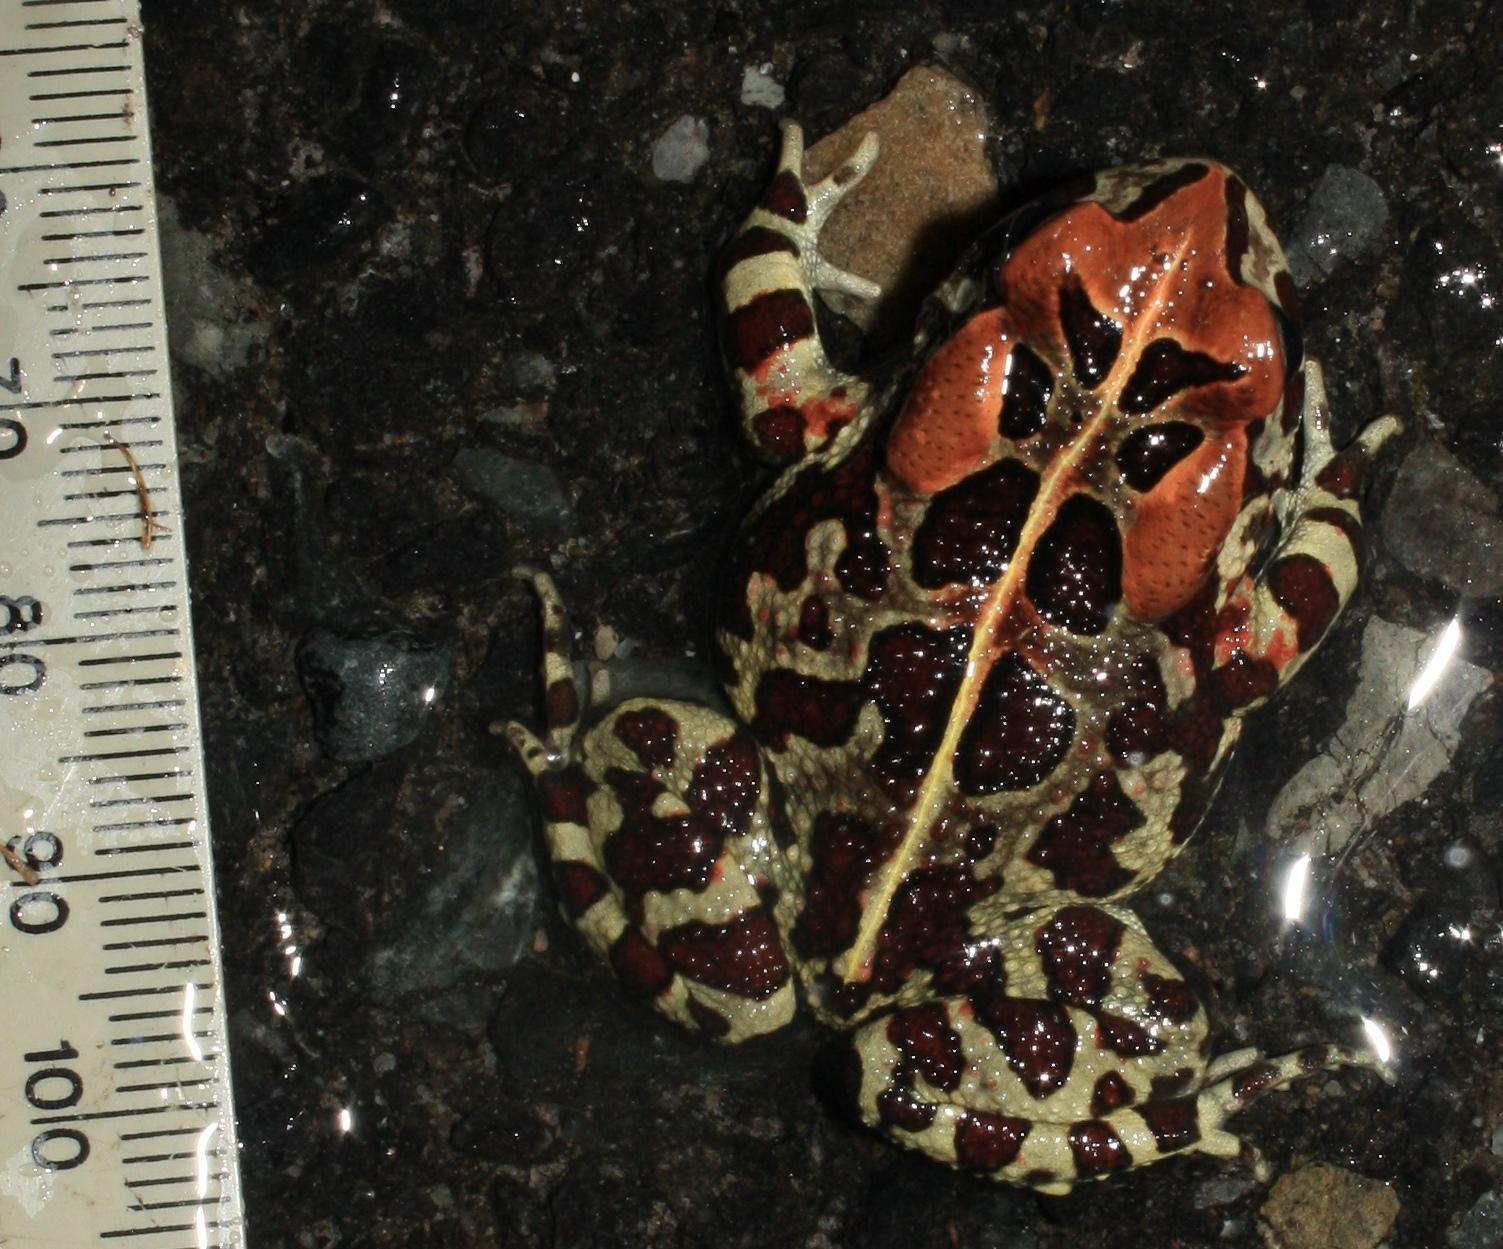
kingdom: Animalia
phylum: Chordata
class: Amphibia
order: Anura
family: Bufonidae
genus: Sclerophrys
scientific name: Sclerophrys pantherina
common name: Panther toad
